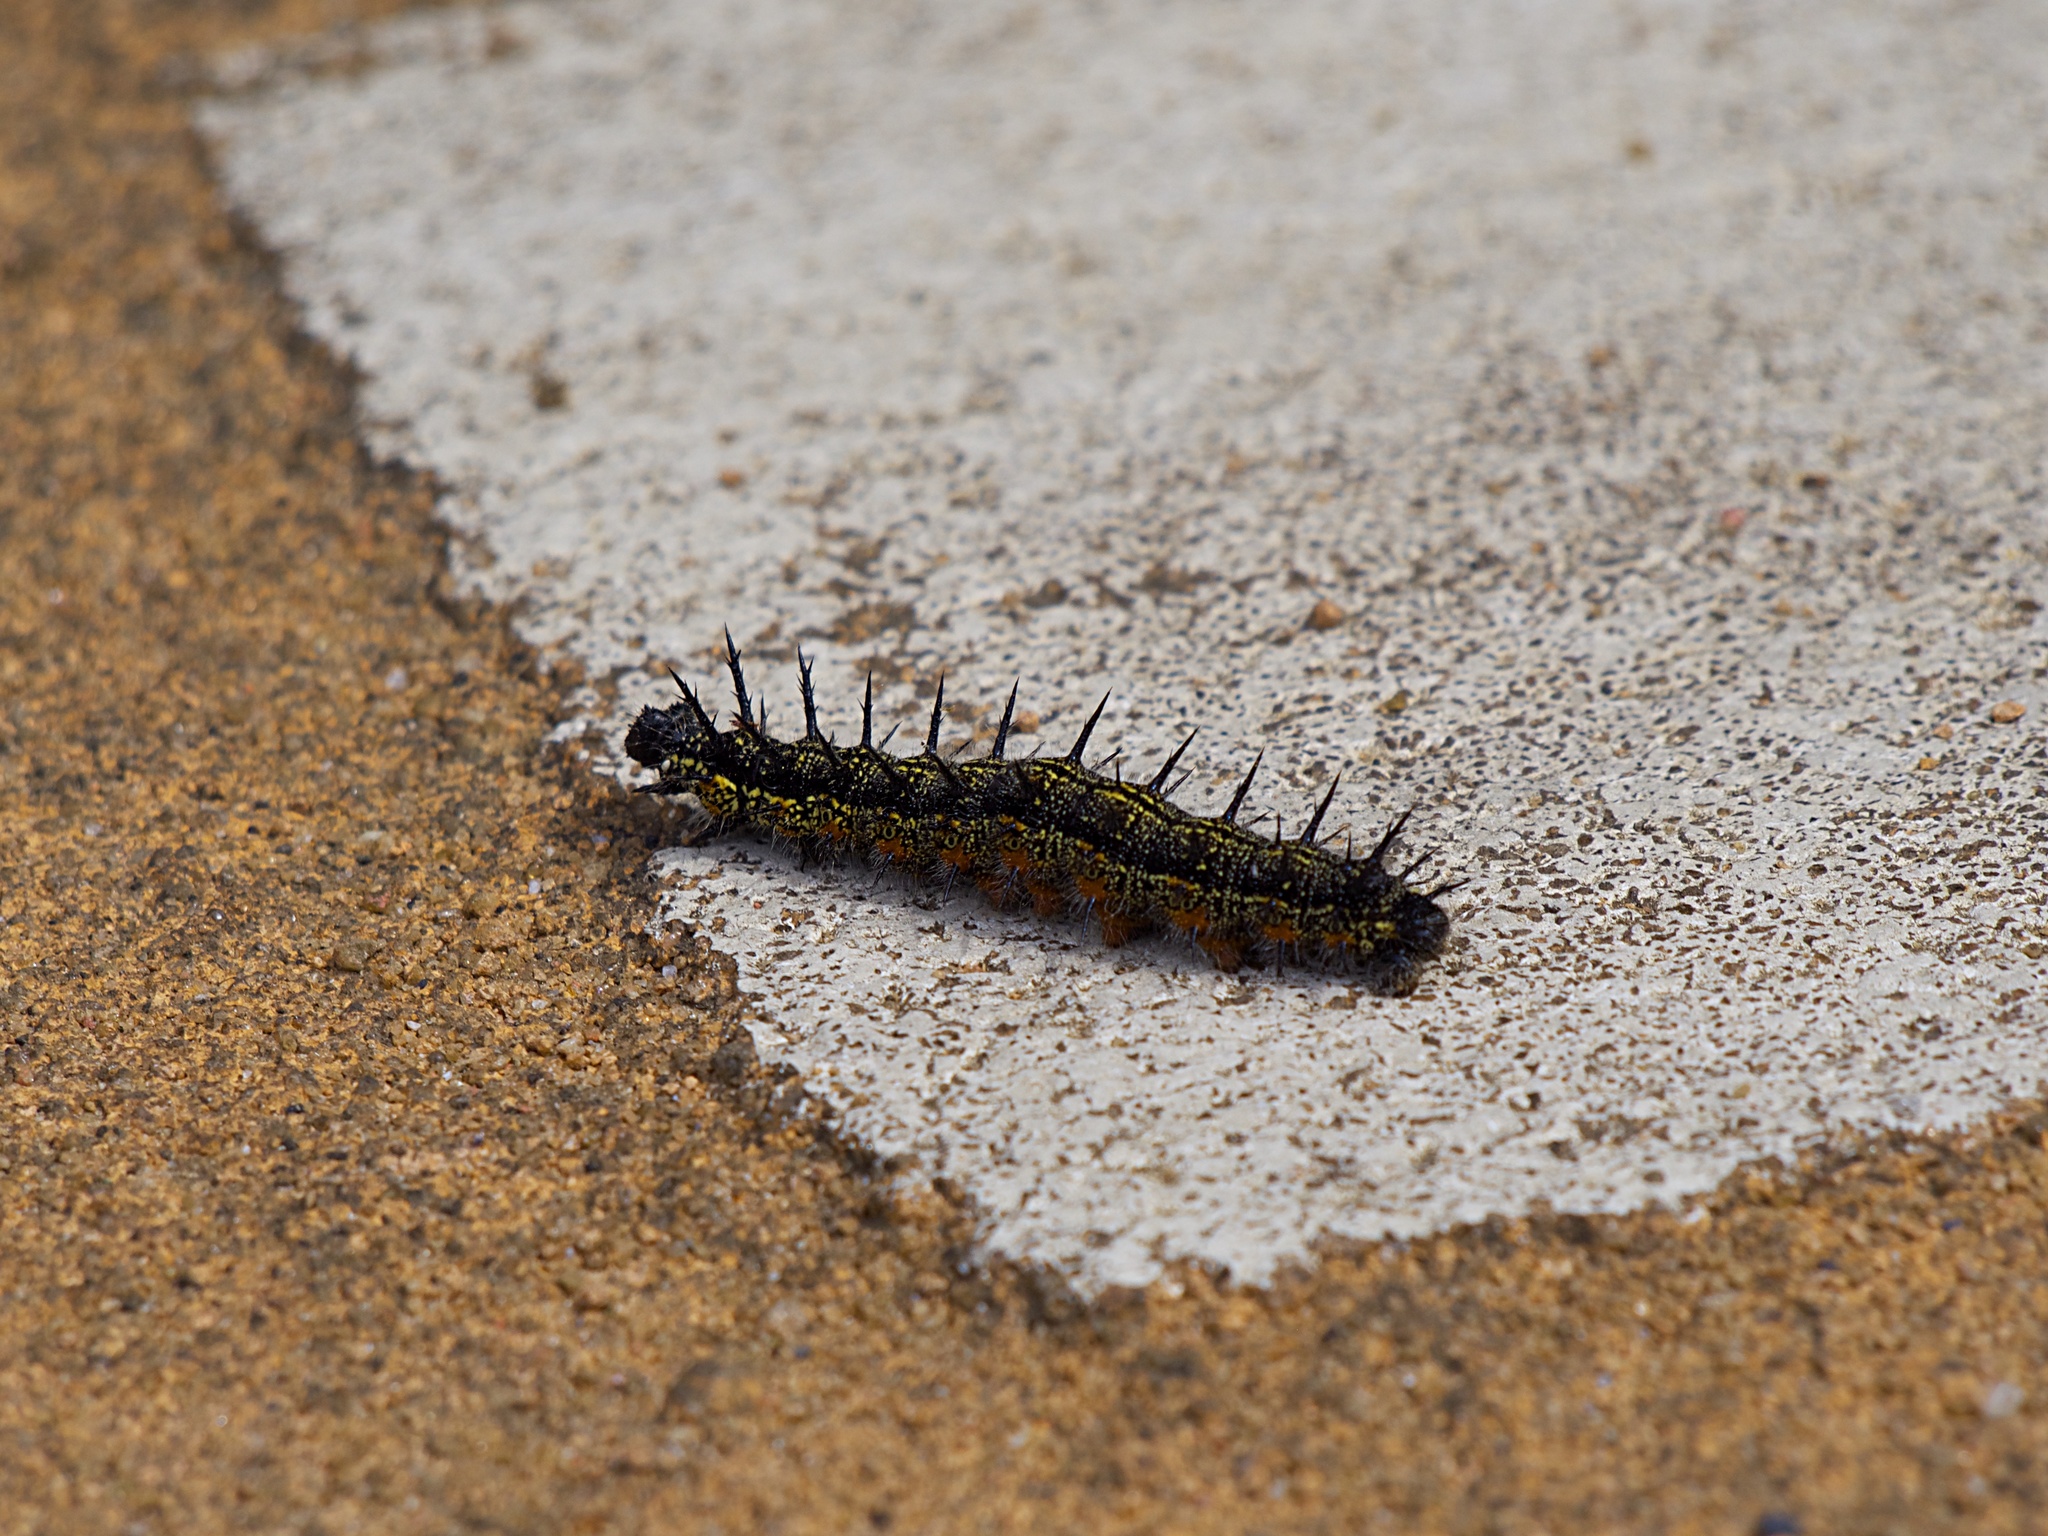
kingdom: Animalia
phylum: Arthropoda
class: Insecta
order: Lepidoptera
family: Nymphalidae
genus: Nymphalis
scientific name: Nymphalis xanthomelas
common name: Scarce tortoiseshell
